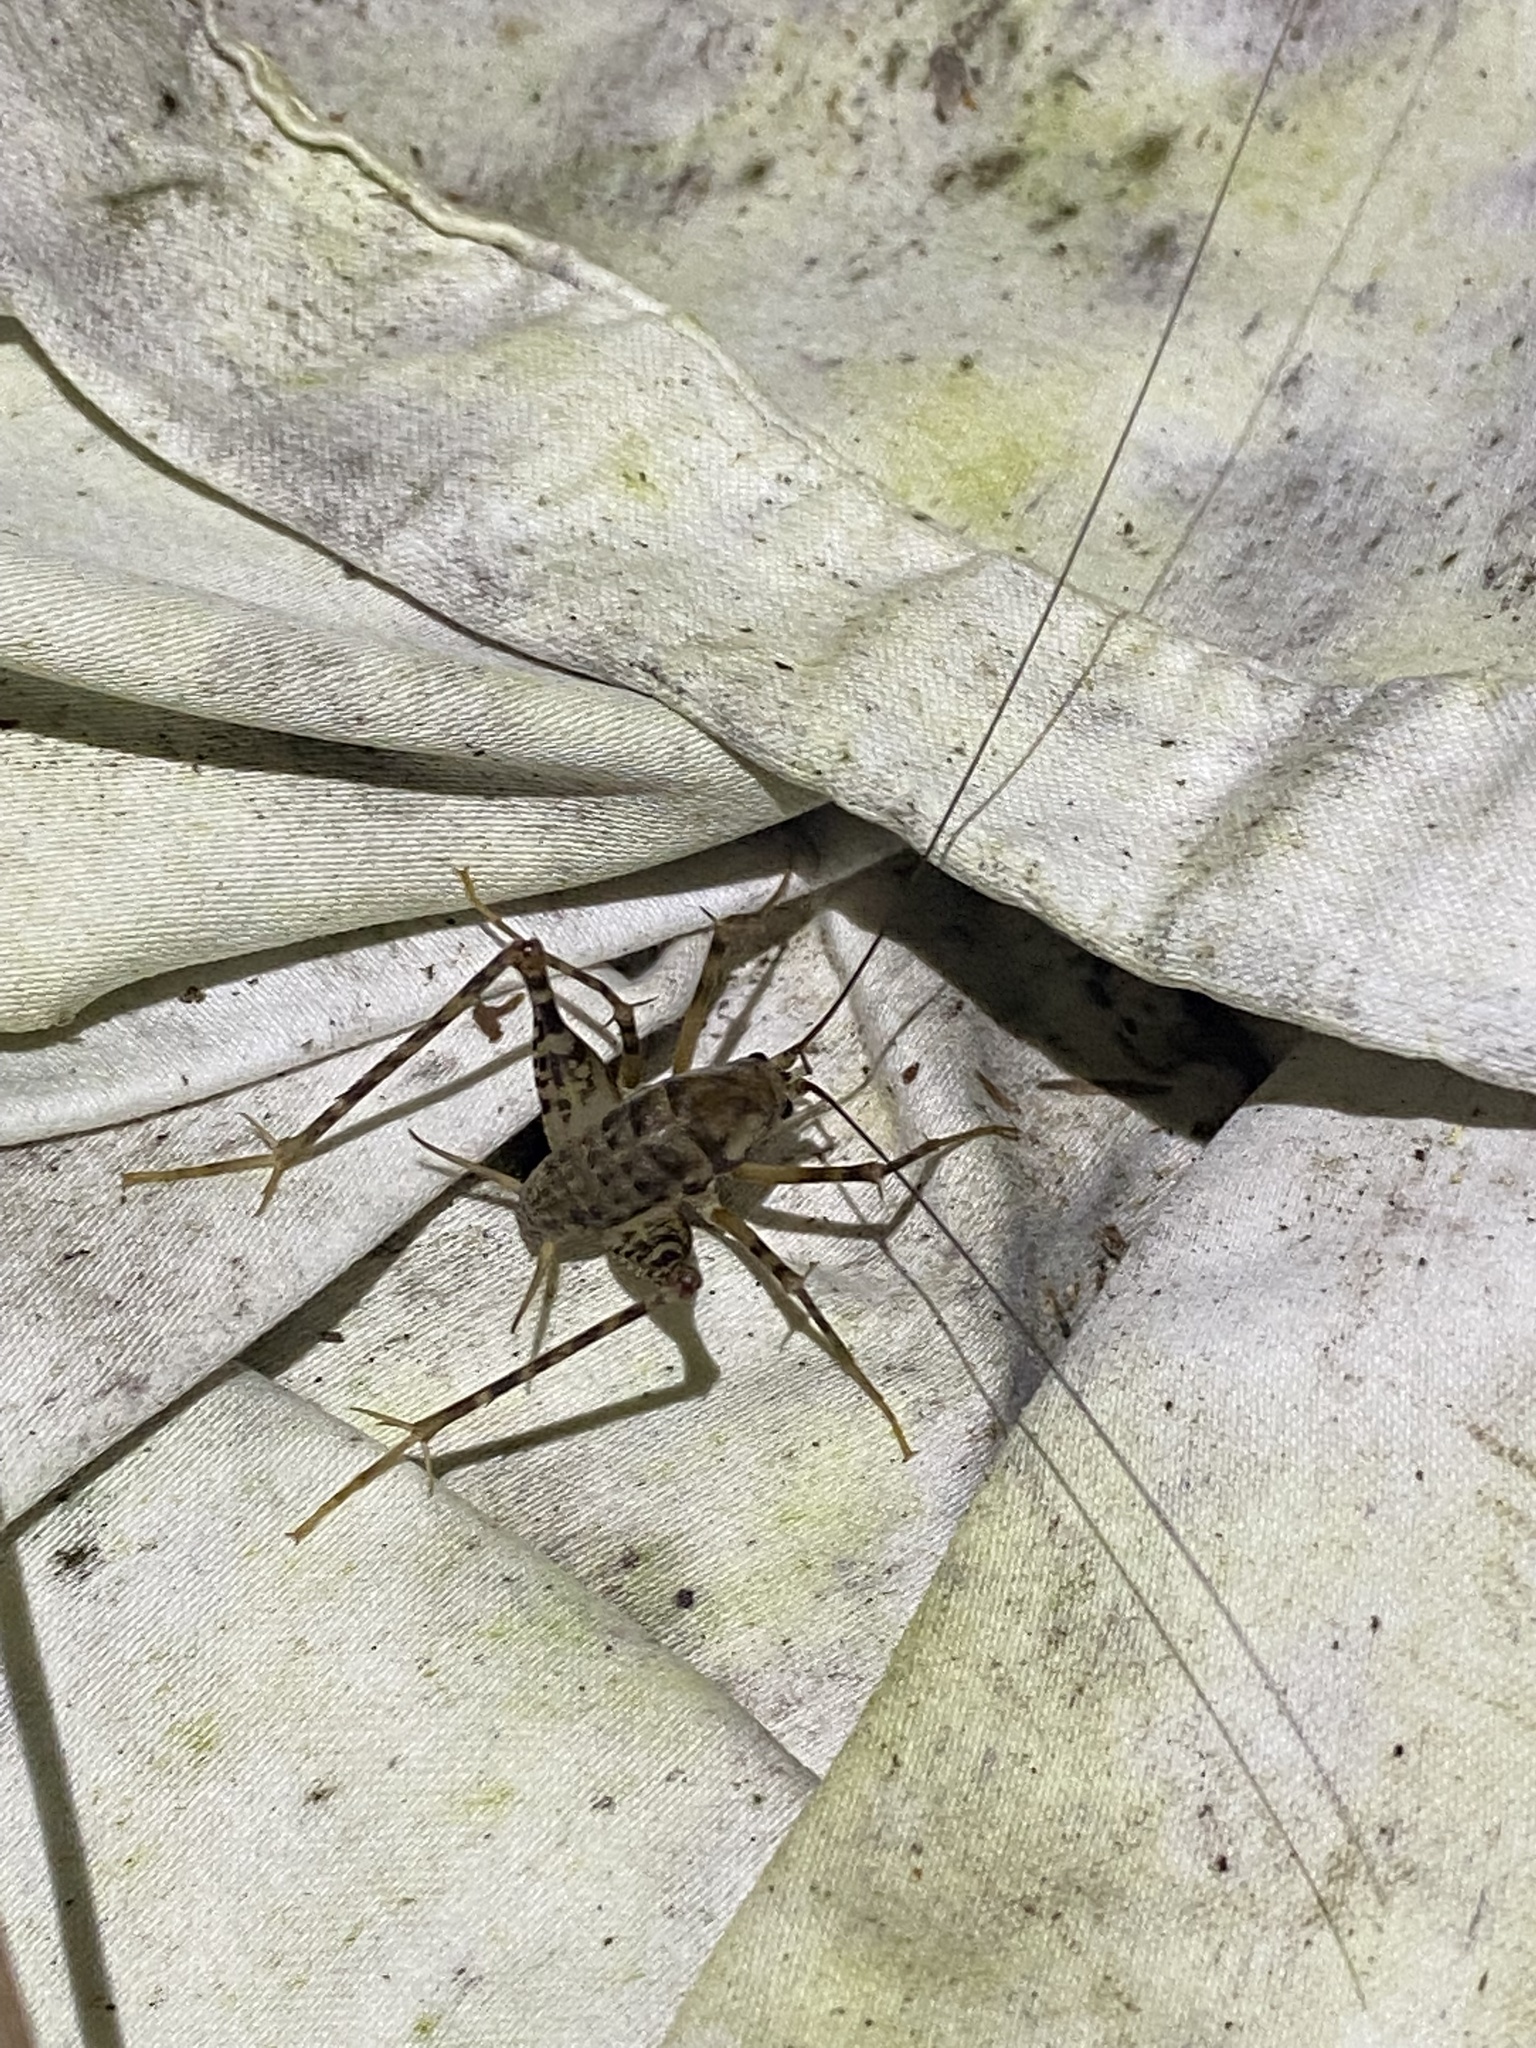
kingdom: Animalia
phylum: Arthropoda
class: Insecta
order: Orthoptera
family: Rhaphidophoridae
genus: Tachycines
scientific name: Tachycines asynamorus
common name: Greenhouse camel cricket
